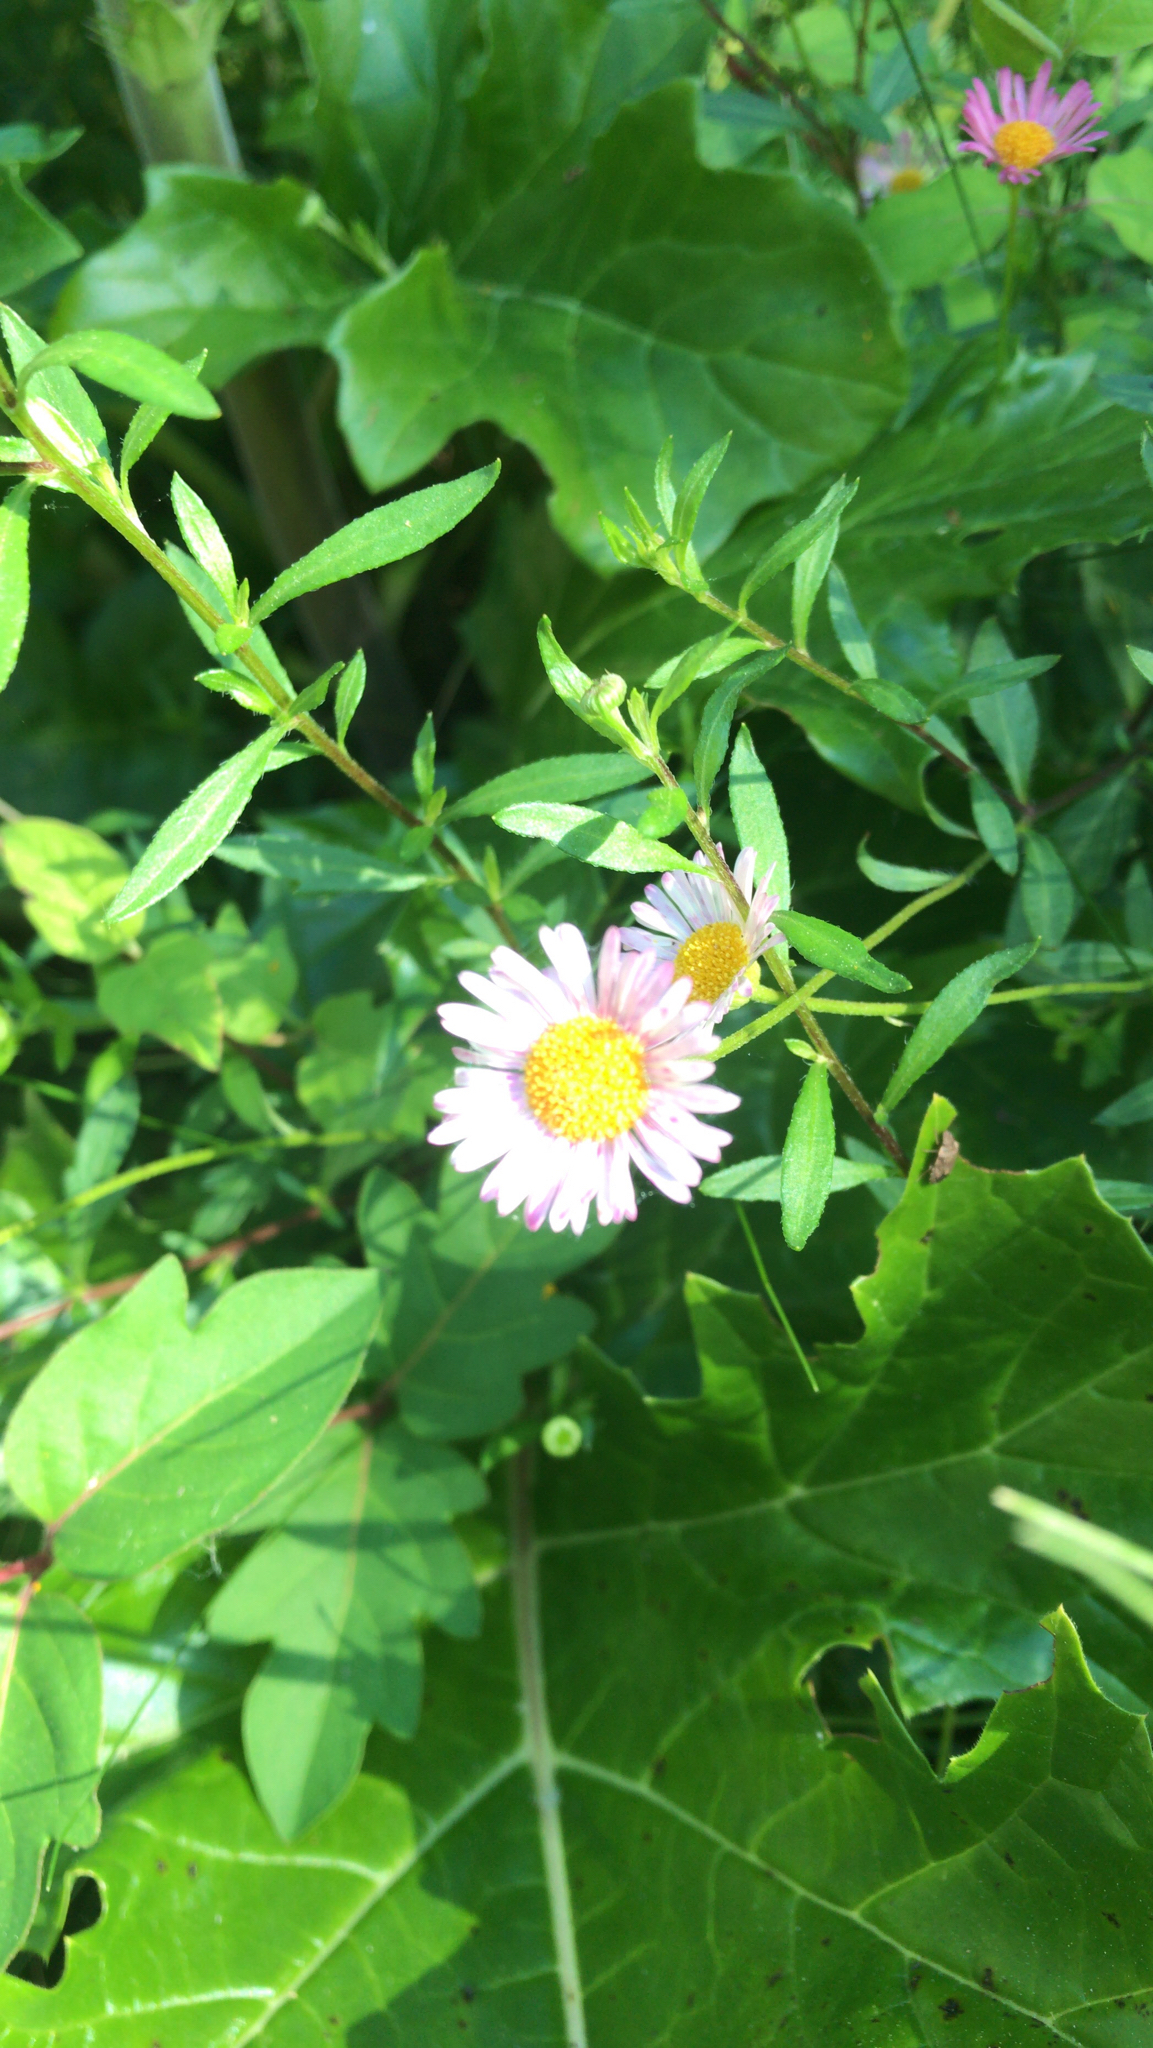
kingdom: Plantae
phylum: Tracheophyta
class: Magnoliopsida
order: Asterales
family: Asteraceae
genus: Erigeron
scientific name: Erigeron karvinskianus
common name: Mexican fleabane
